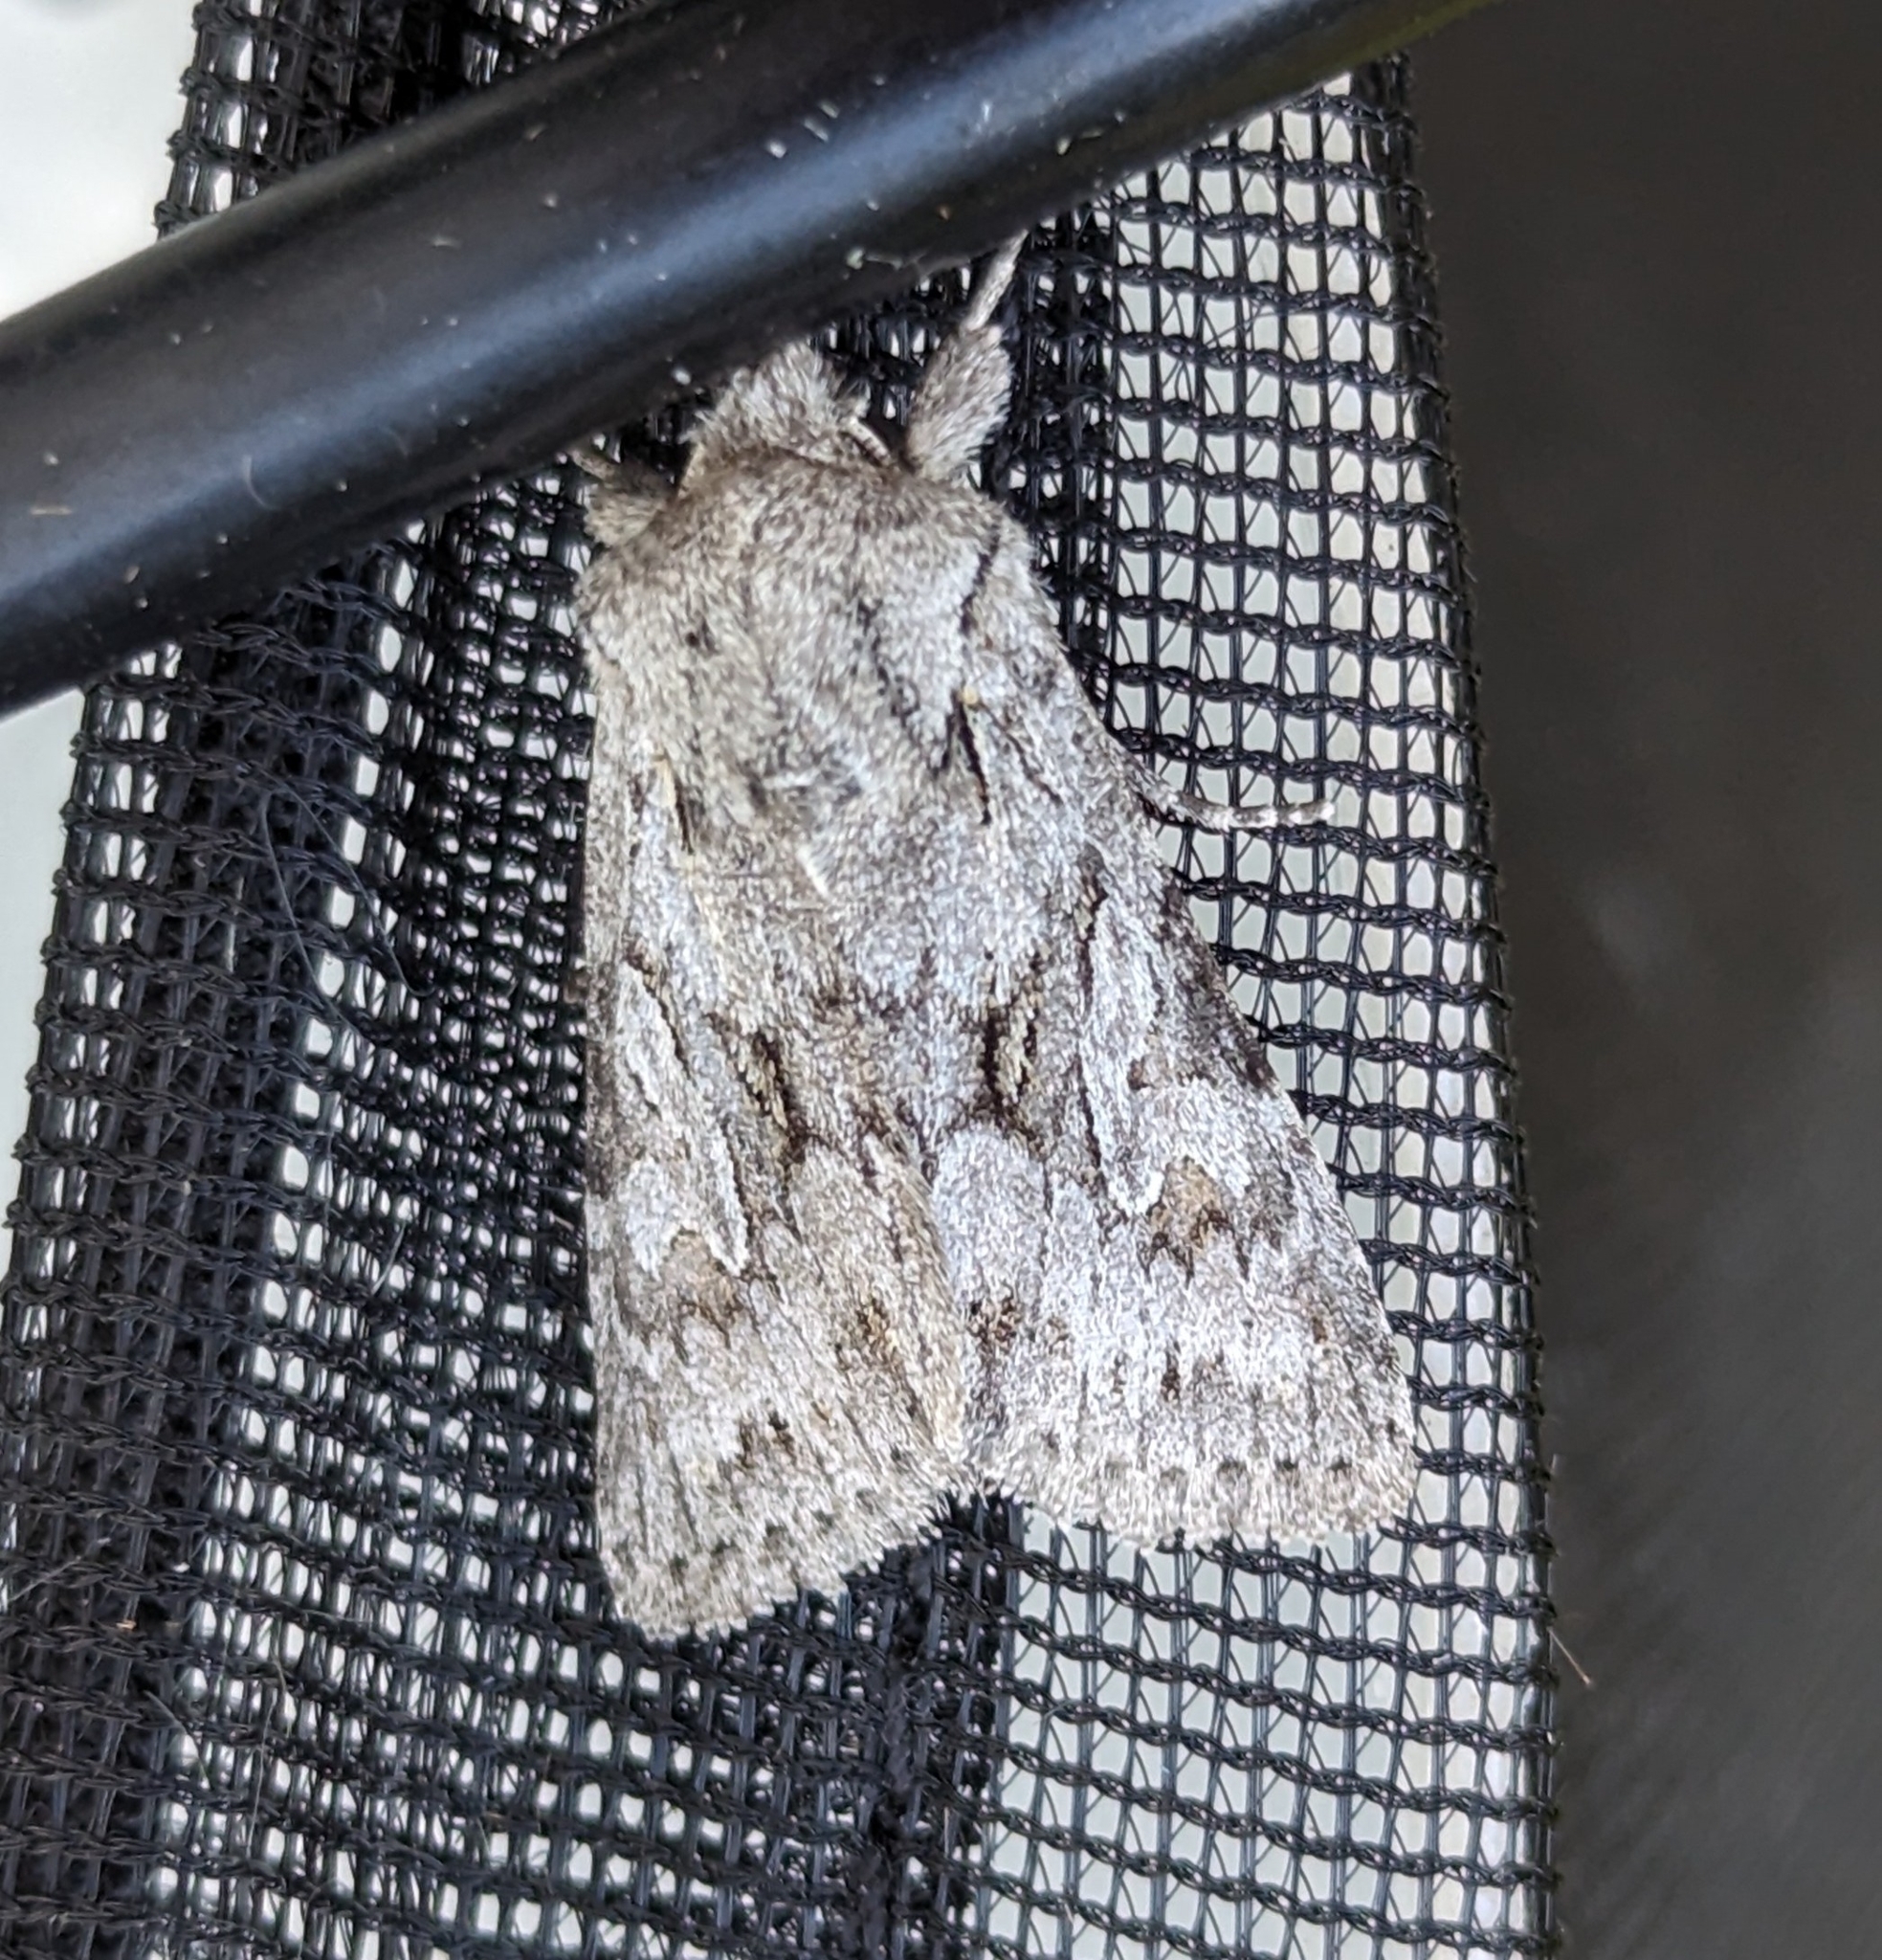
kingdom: Animalia
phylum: Arthropoda
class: Insecta
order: Lepidoptera
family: Noctuidae
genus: Lacinipolia
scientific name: Lacinipolia patalis
